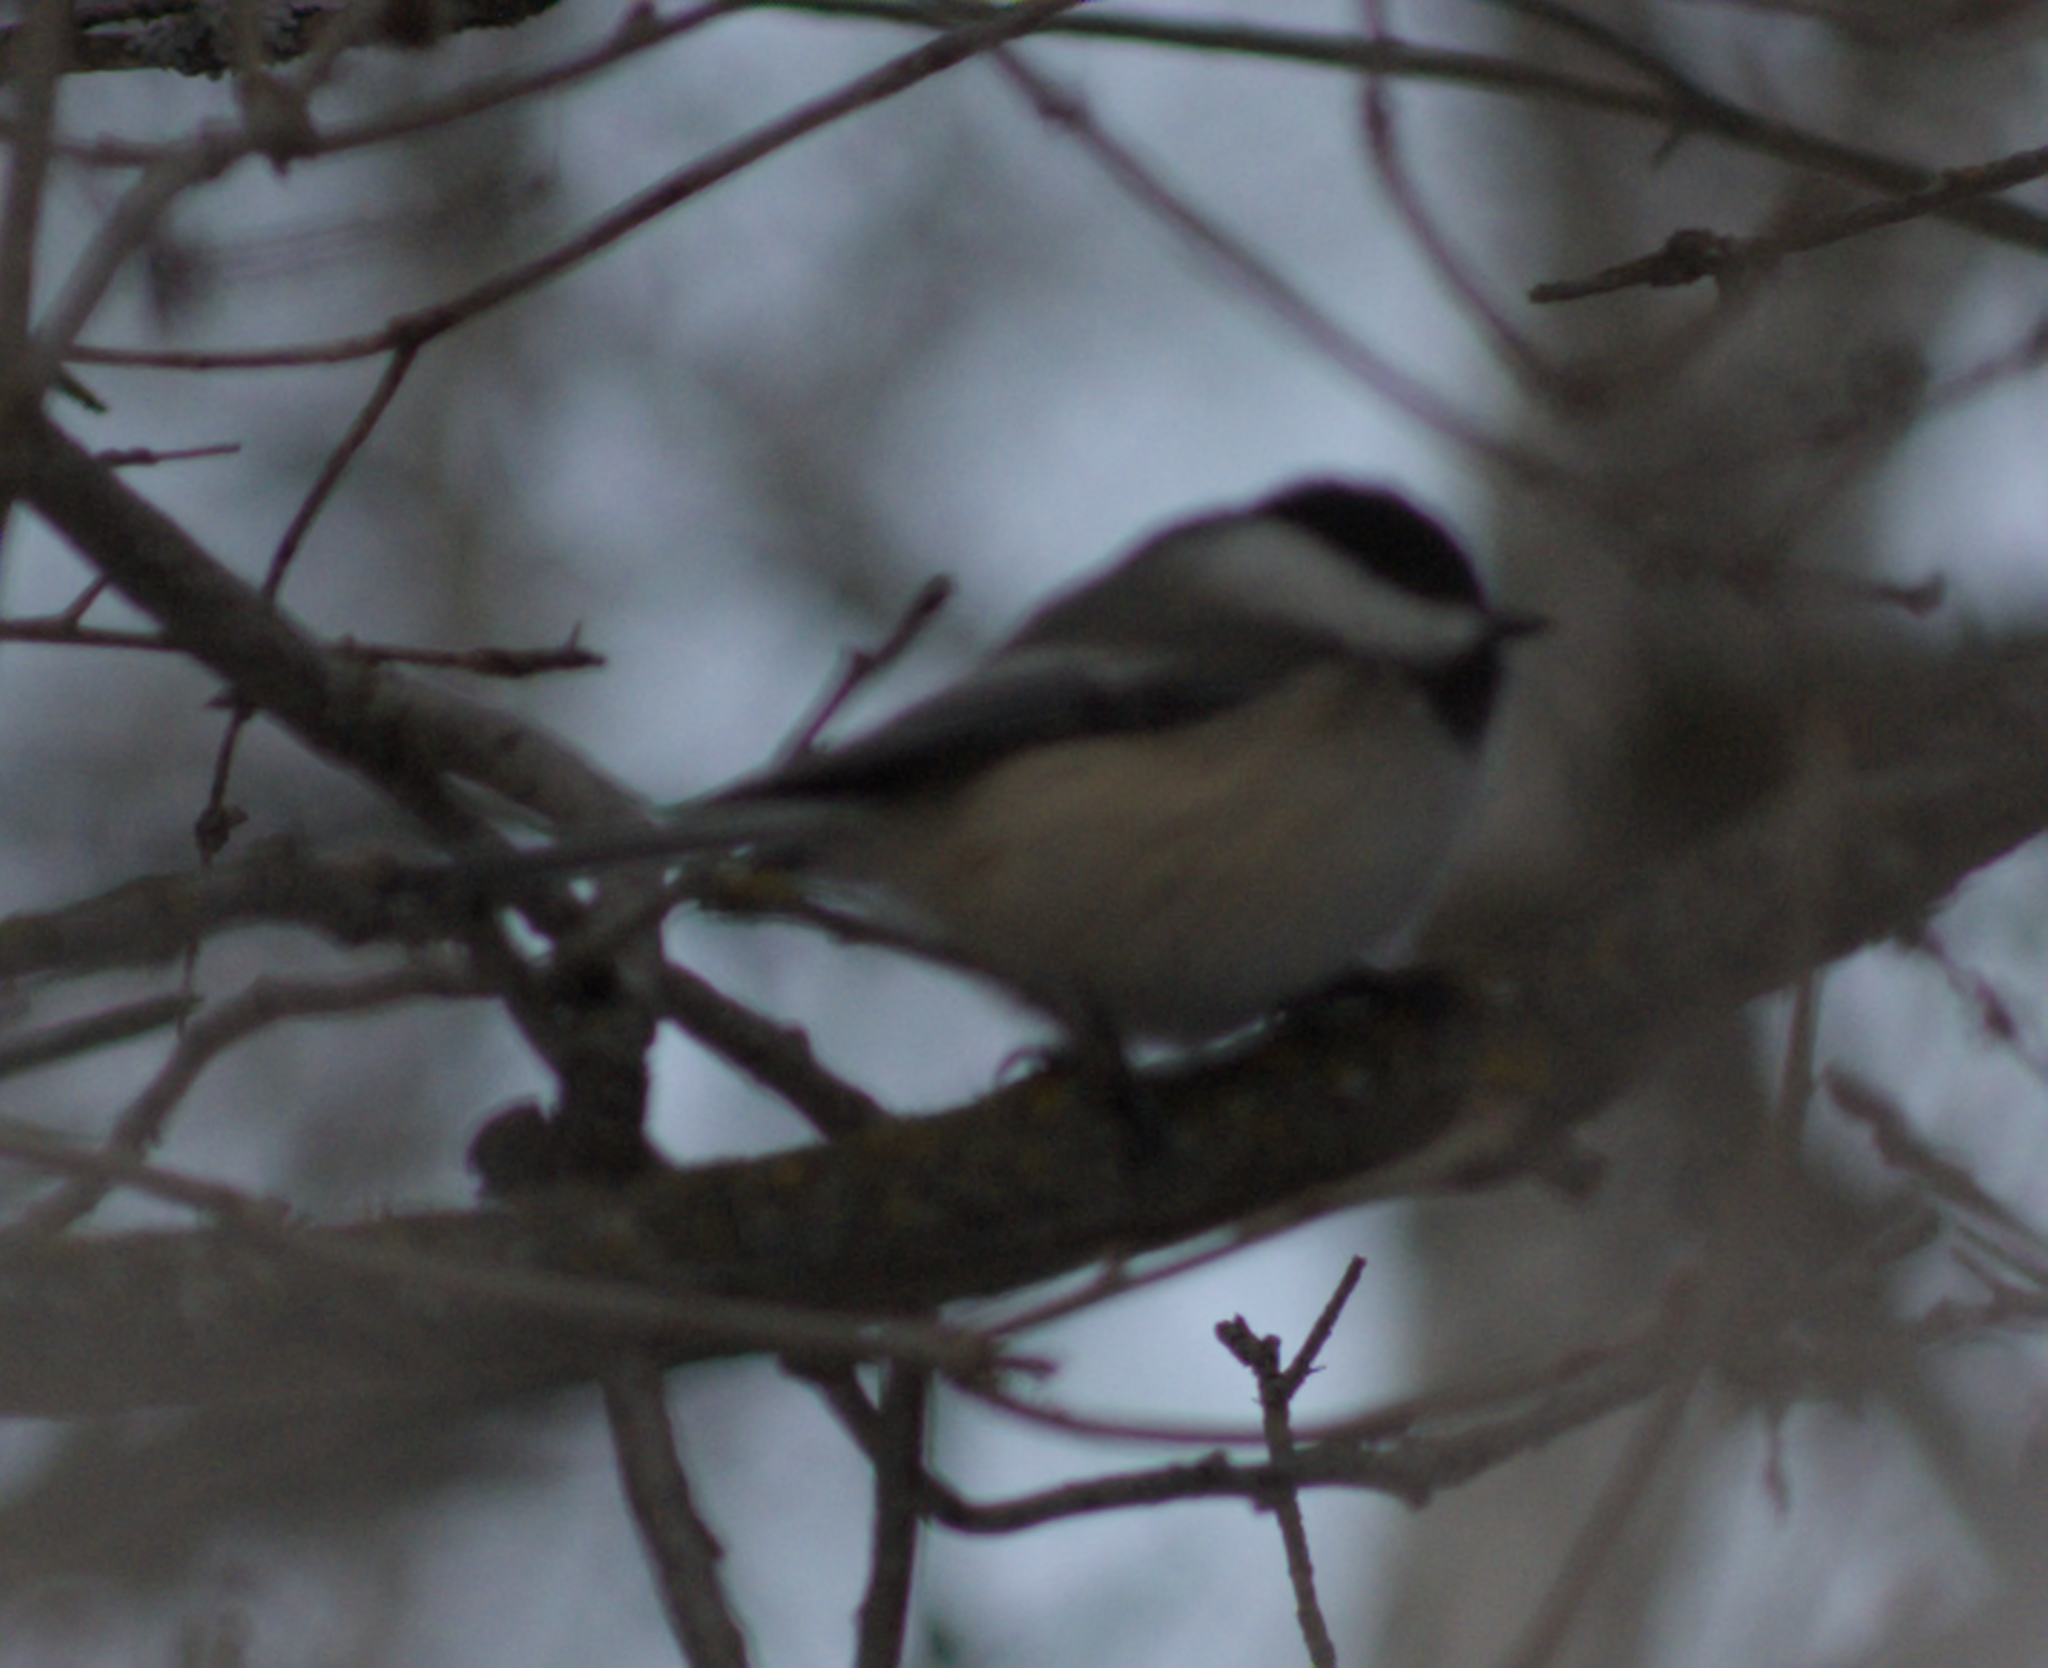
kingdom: Animalia
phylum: Chordata
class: Aves
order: Passeriformes
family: Paridae
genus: Poecile
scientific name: Poecile atricapillus
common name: Black-capped chickadee
